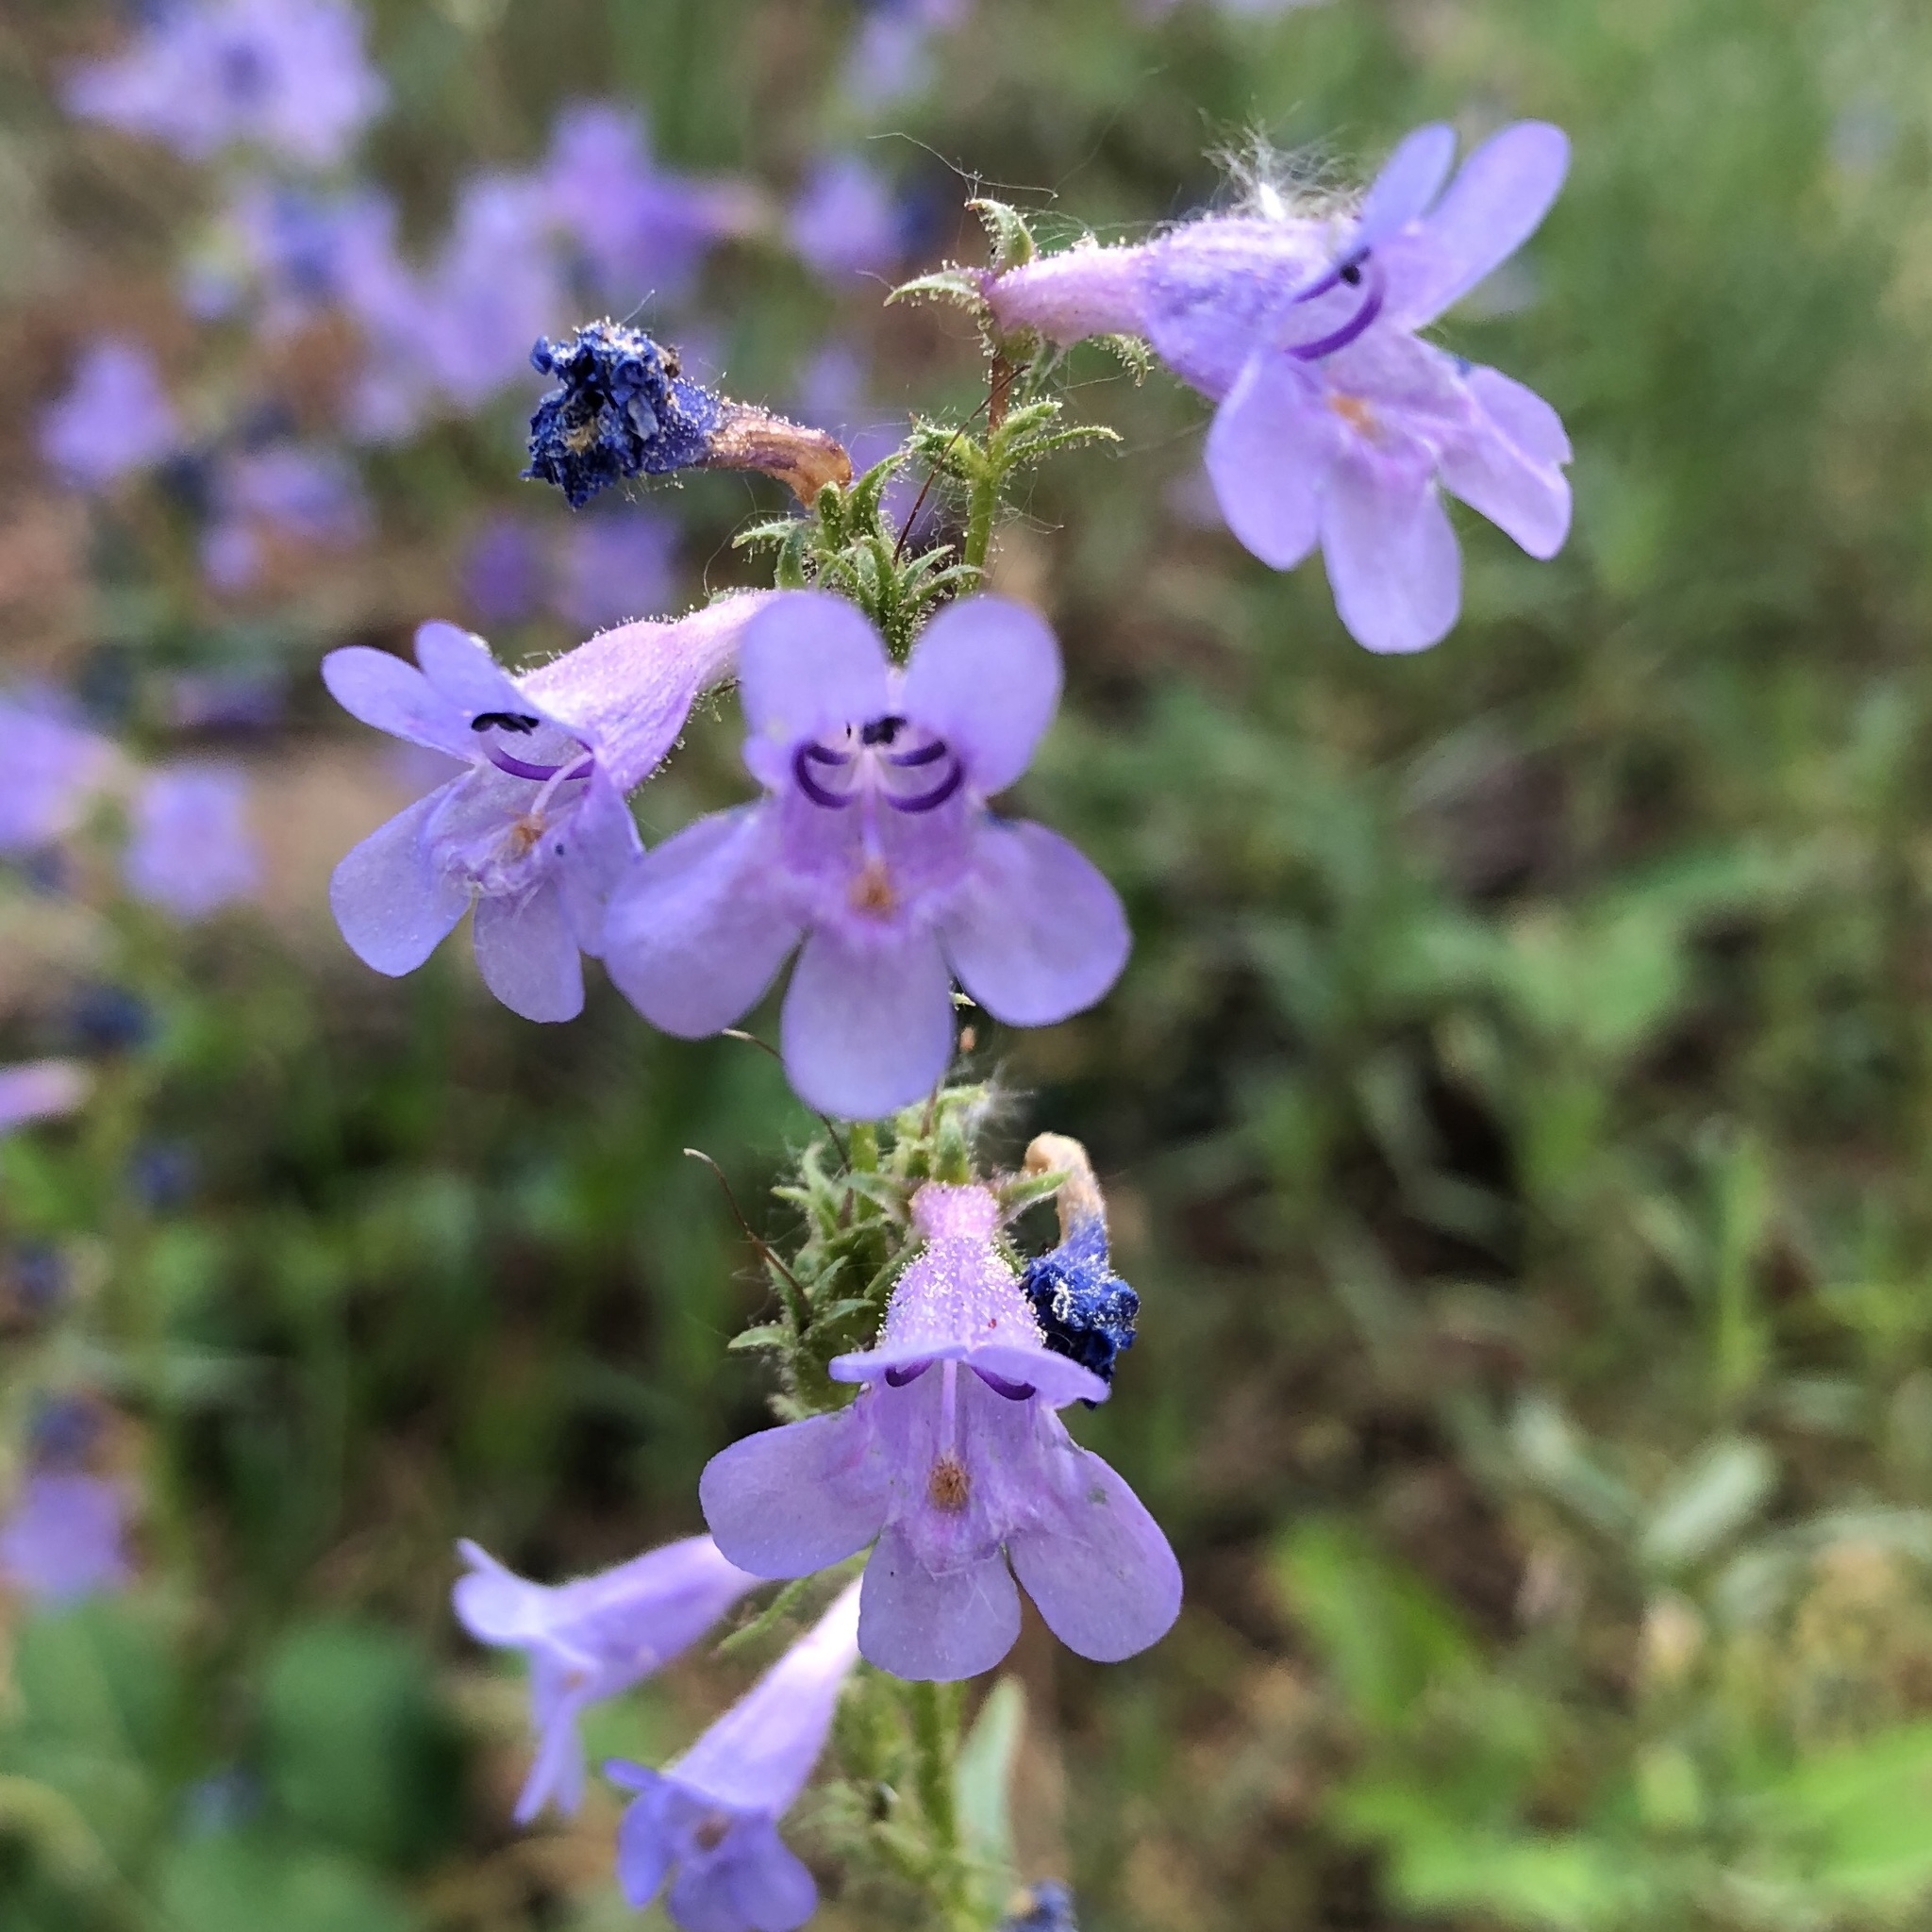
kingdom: Plantae
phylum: Tracheophyta
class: Magnoliopsida
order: Lamiales
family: Plantaginaceae
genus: Penstemon
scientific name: Penstemon virens
